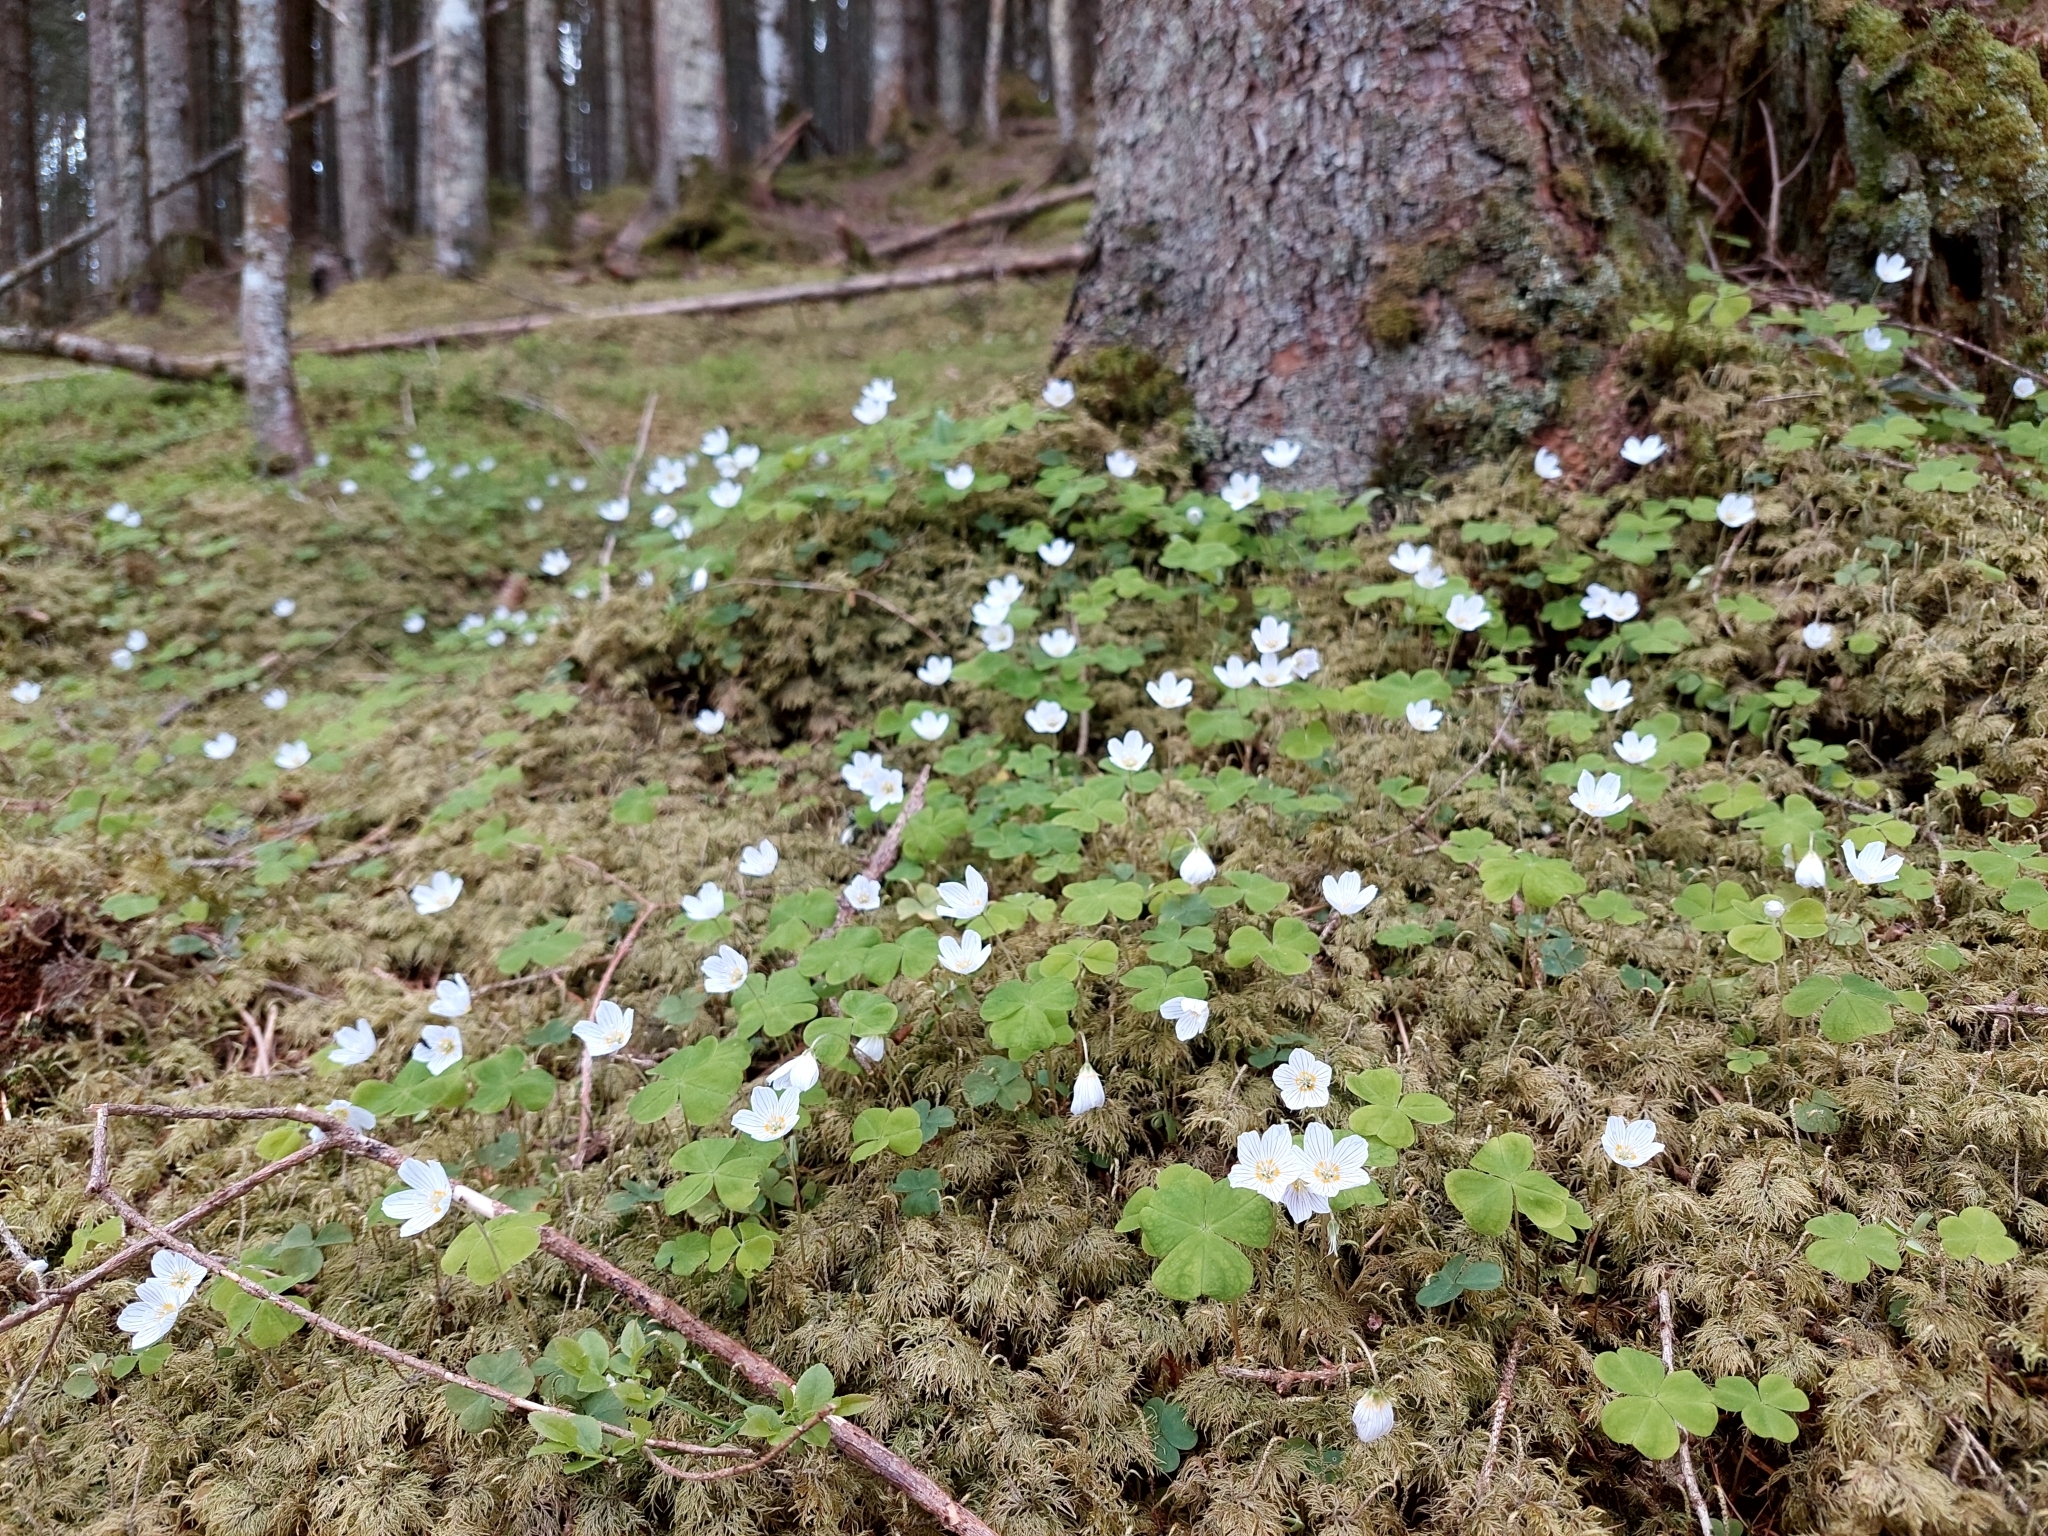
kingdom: Plantae
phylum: Tracheophyta
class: Magnoliopsida
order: Oxalidales
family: Oxalidaceae
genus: Oxalis
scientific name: Oxalis acetosella
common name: Wood-sorrel
